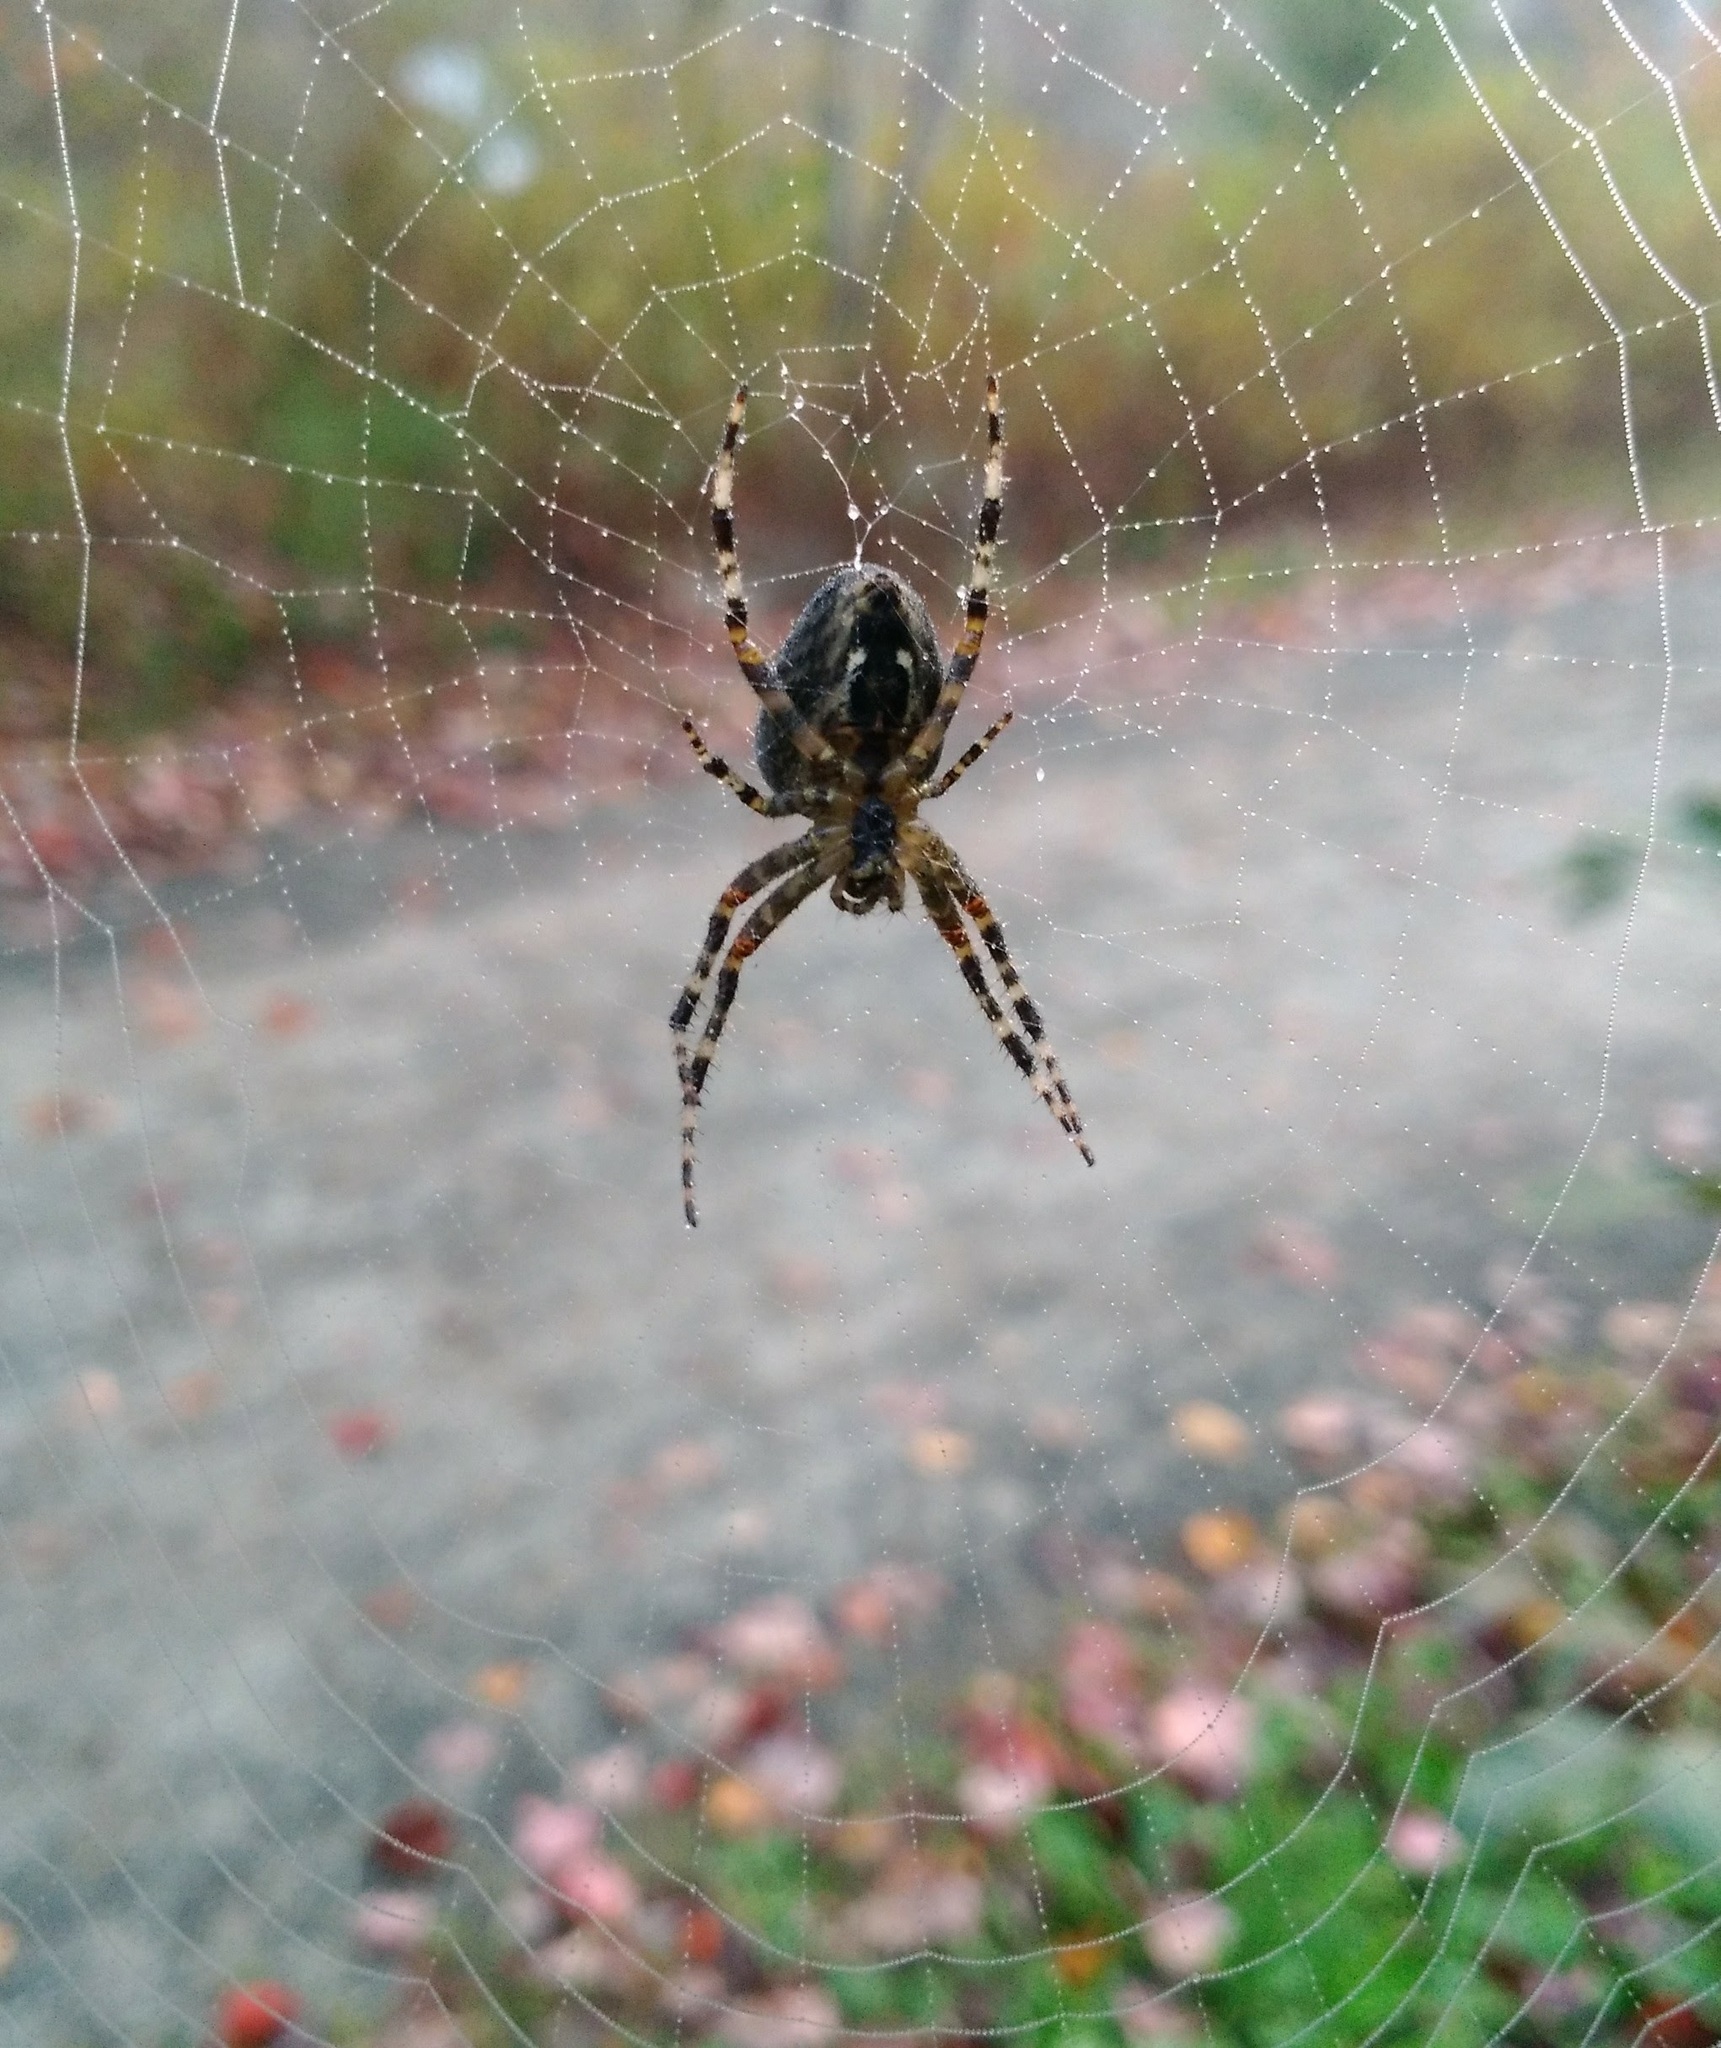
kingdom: Animalia
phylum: Arthropoda
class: Arachnida
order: Araneae
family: Araneidae
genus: Araneus
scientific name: Araneus diadematus
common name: Cross orbweaver
